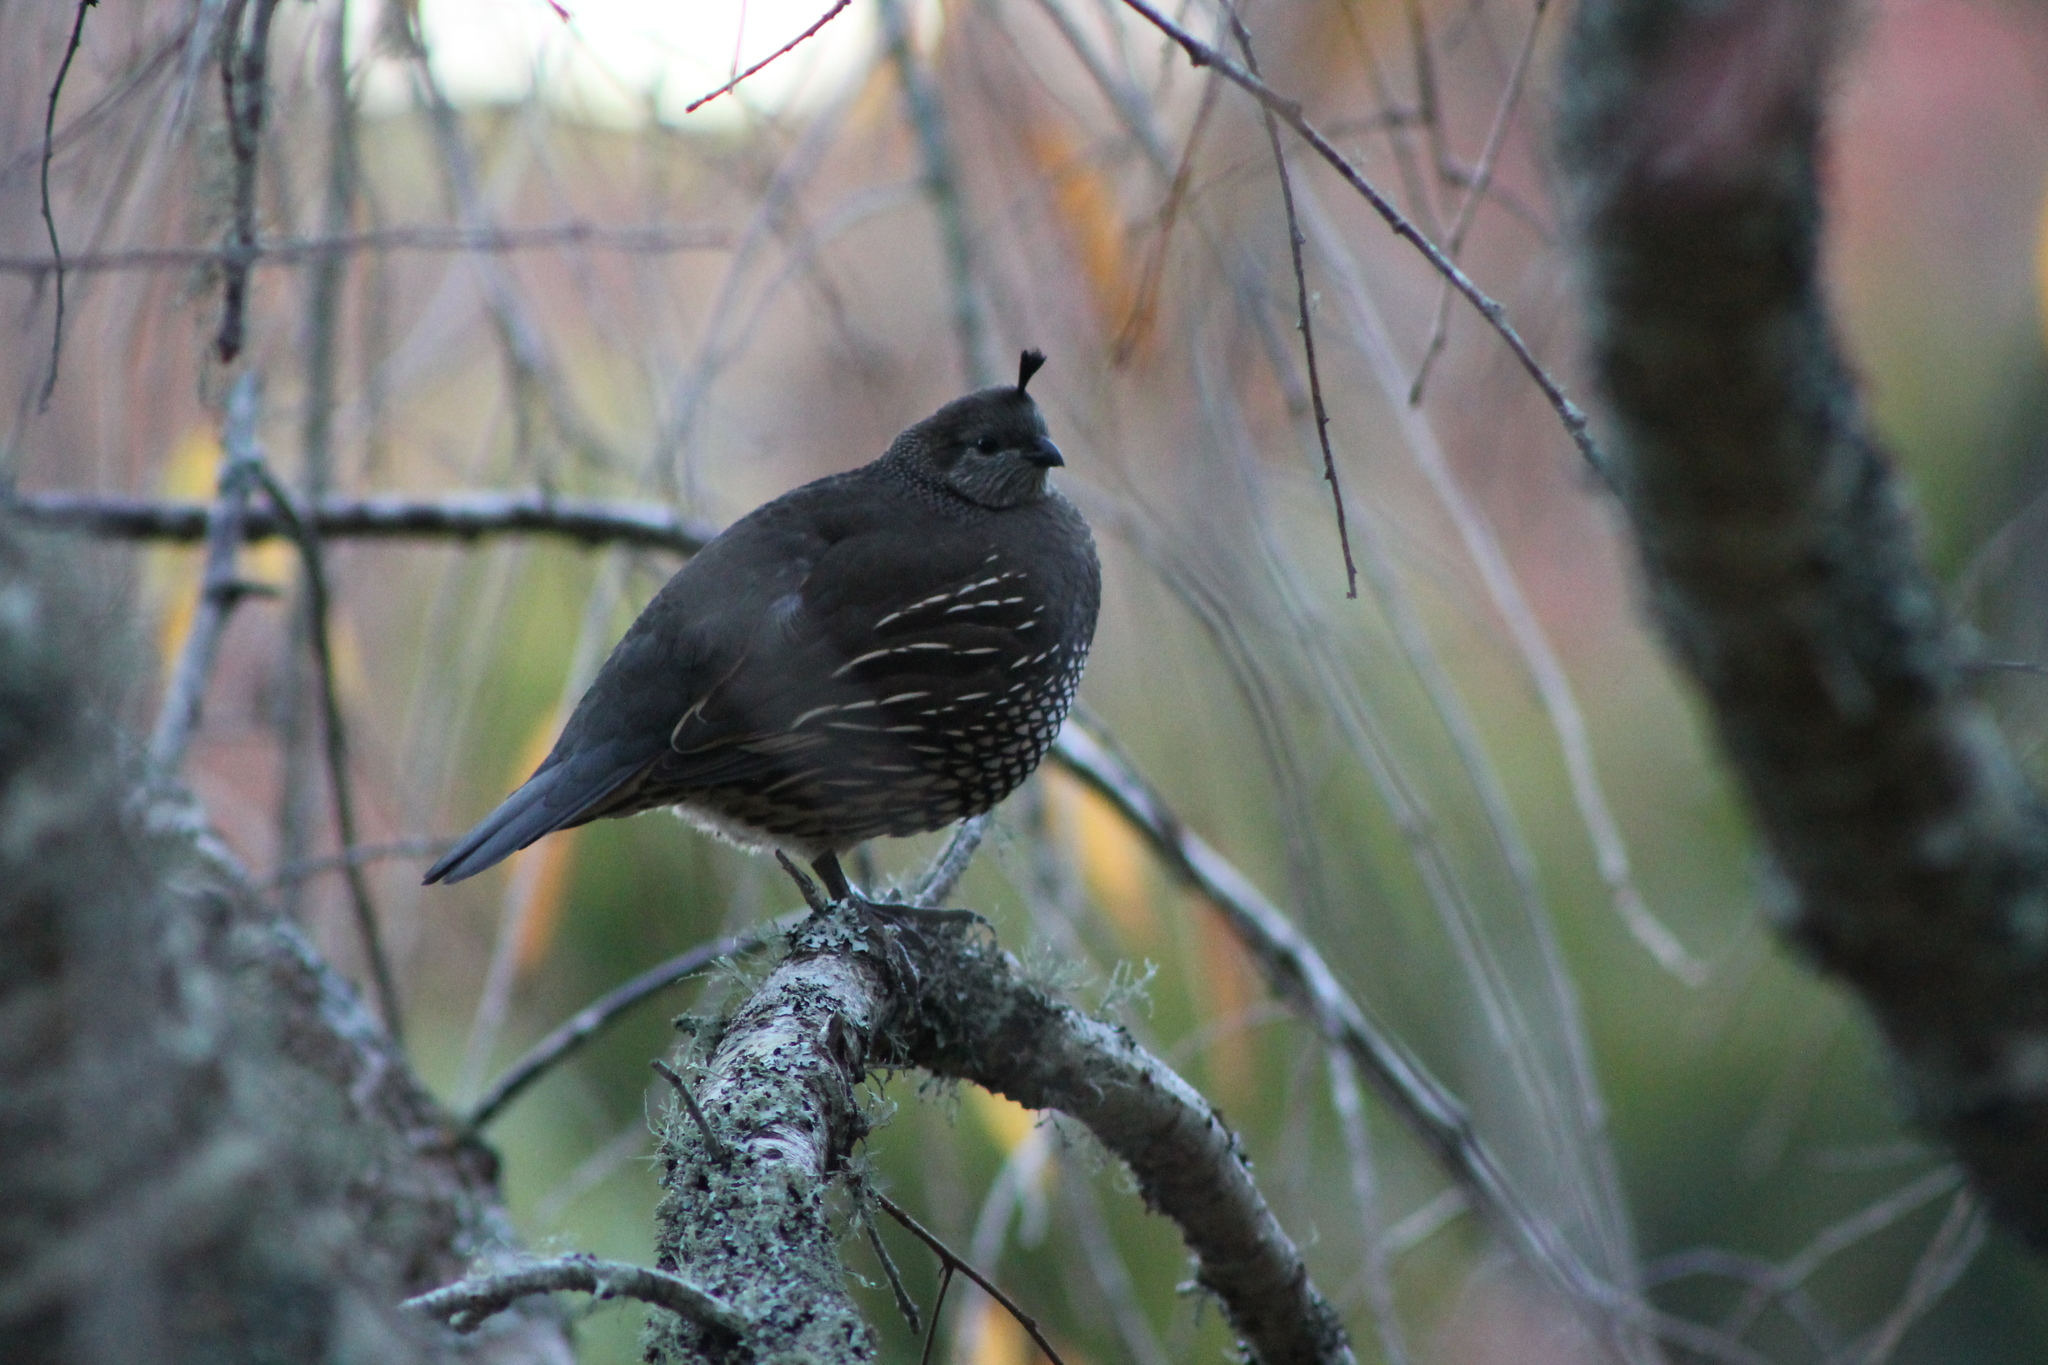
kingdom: Animalia
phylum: Chordata
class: Aves
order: Galliformes
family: Odontophoridae
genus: Callipepla
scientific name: Callipepla californica
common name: California quail
